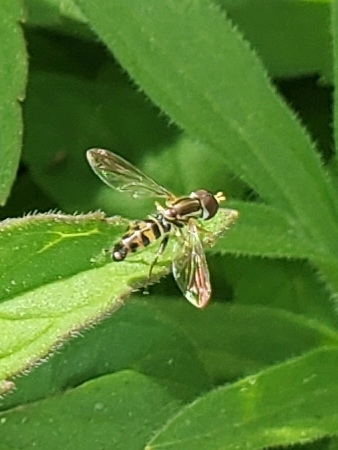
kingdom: Animalia
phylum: Arthropoda
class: Insecta
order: Diptera
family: Syrphidae
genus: Toxomerus
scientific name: Toxomerus geminatus
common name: Eastern calligrapher
